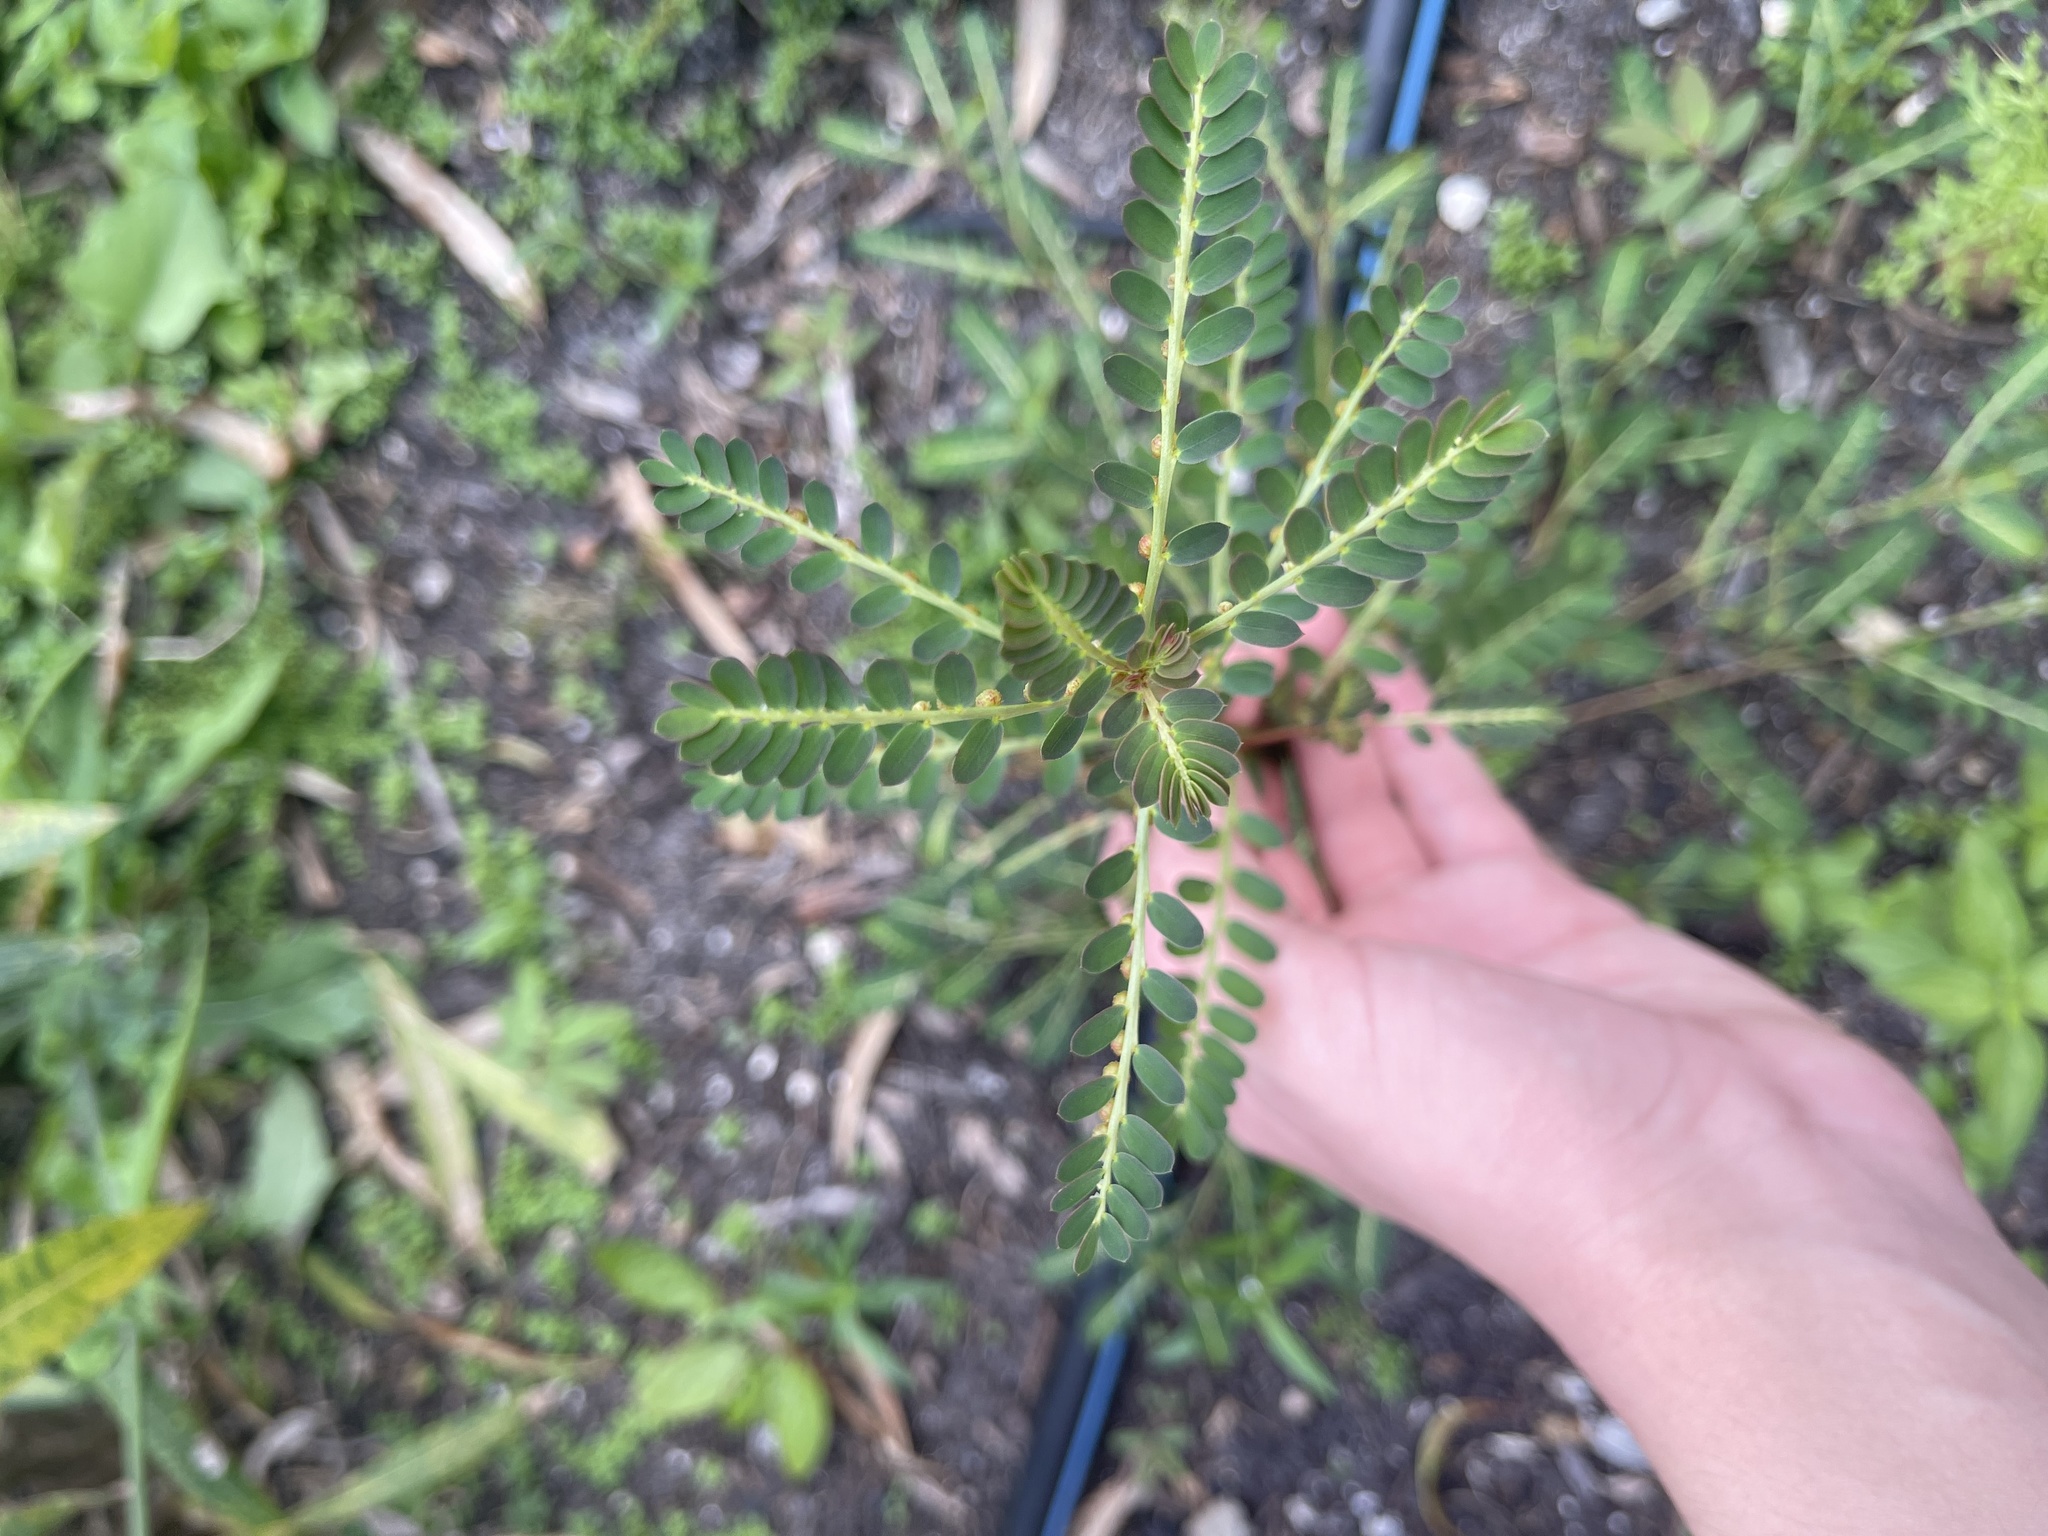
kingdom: Plantae
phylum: Tracheophyta
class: Magnoliopsida
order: Malpighiales
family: Phyllanthaceae
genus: Phyllanthus
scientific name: Phyllanthus urinaria
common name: Chamber bitter
